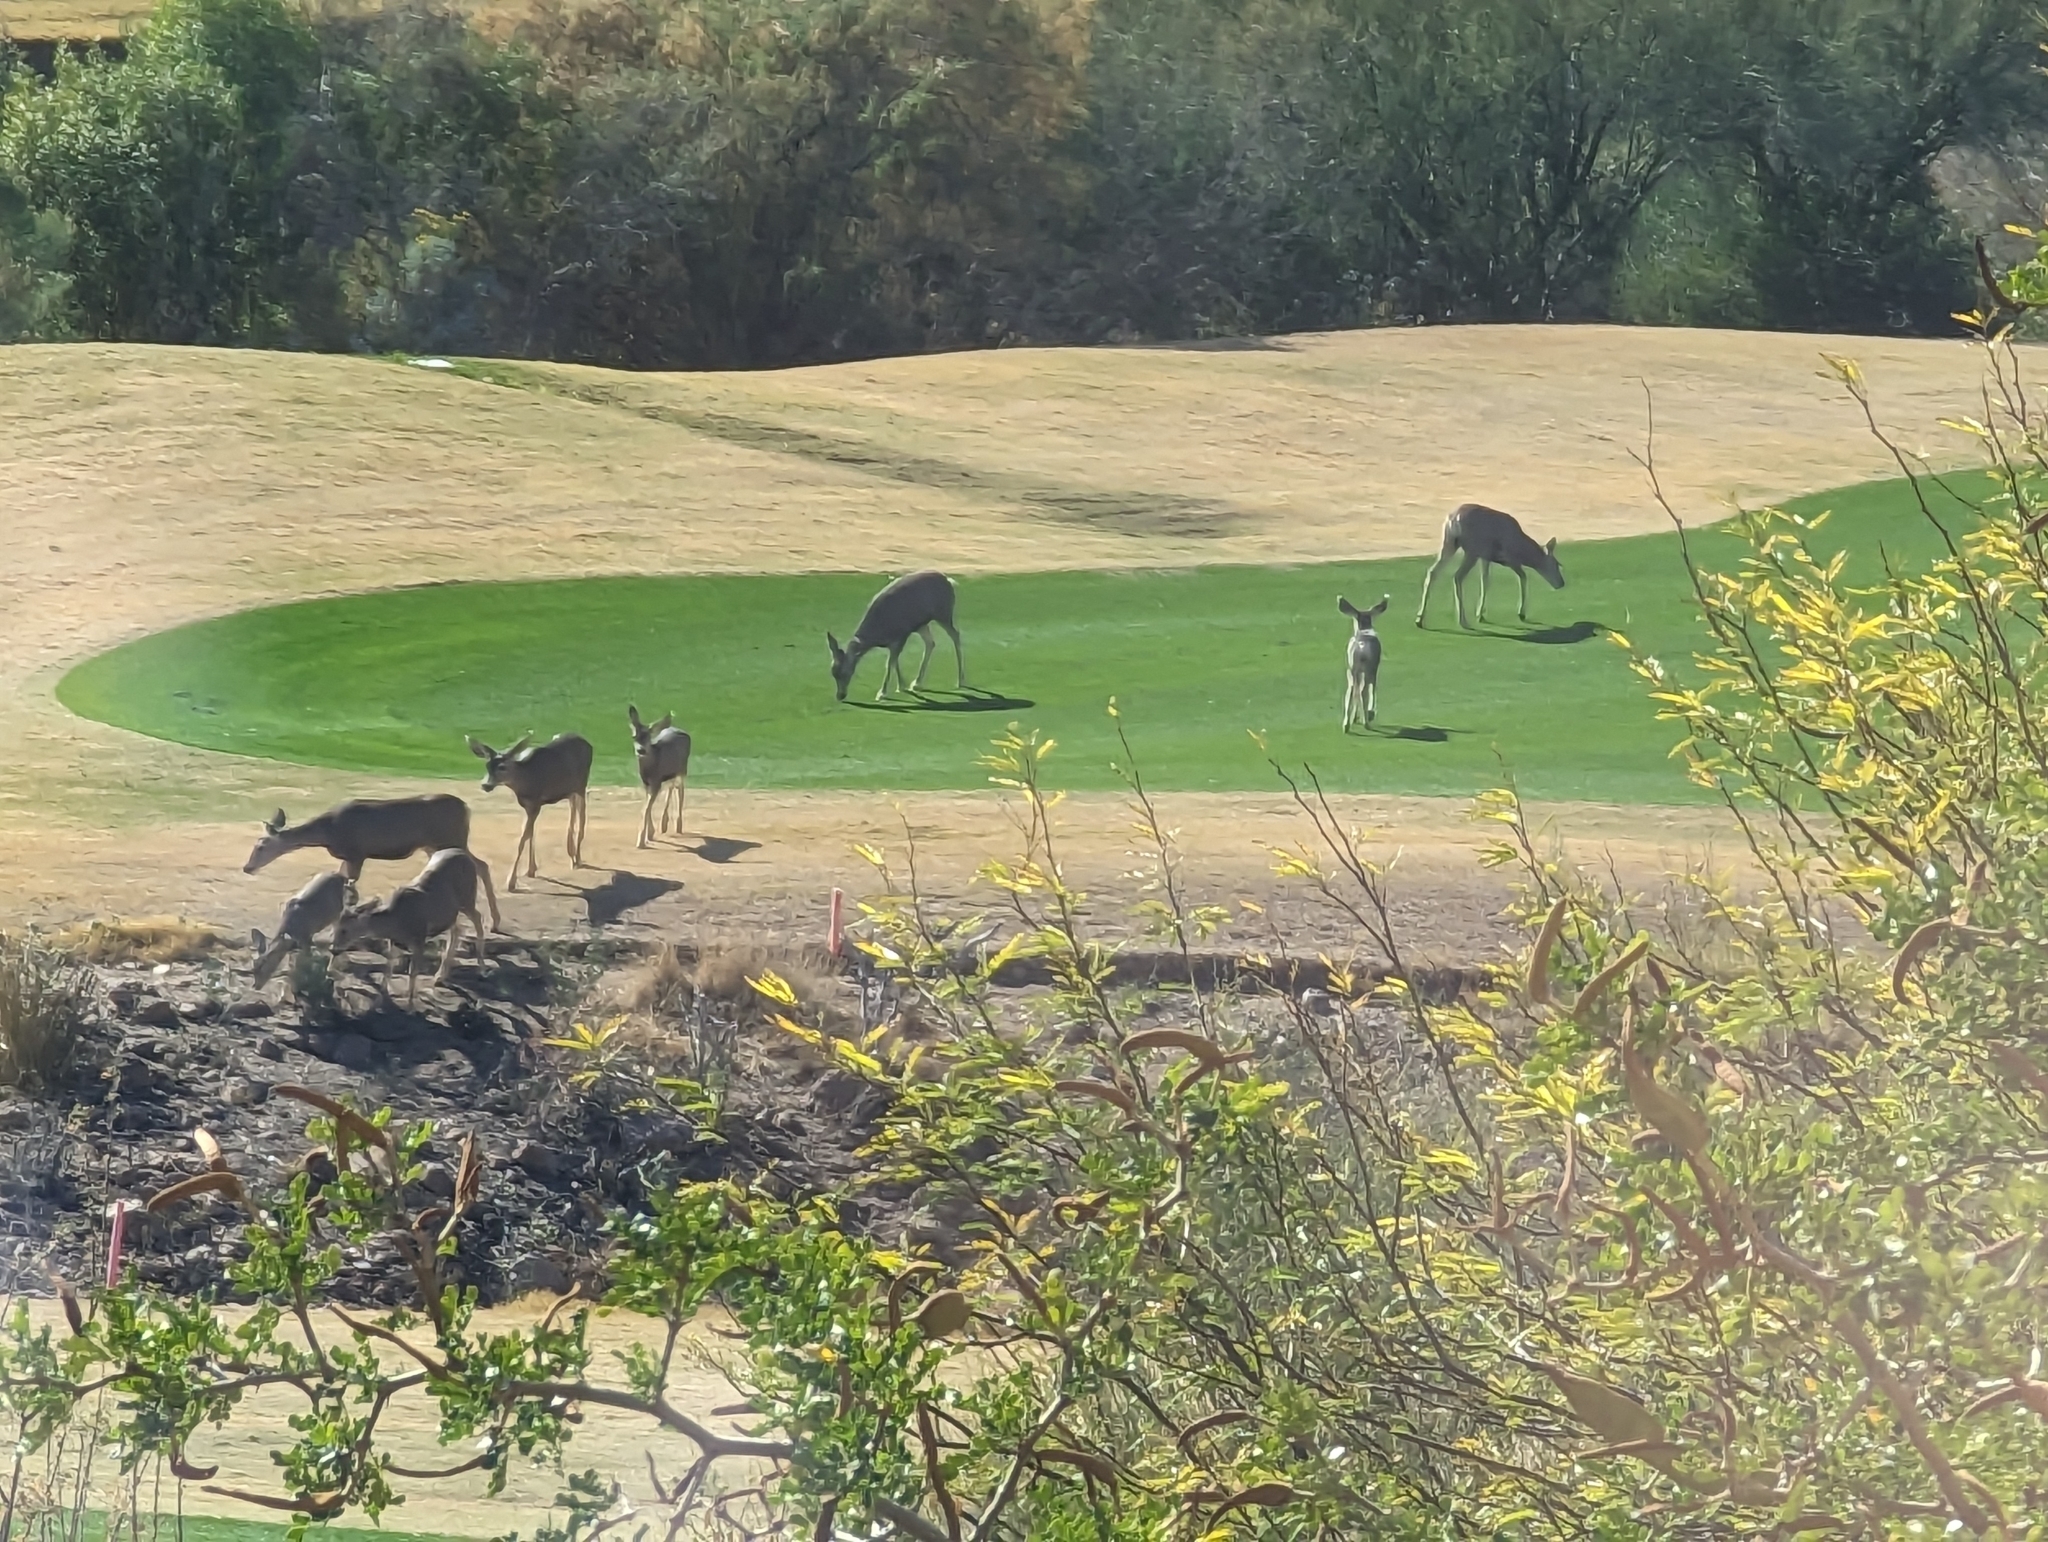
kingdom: Animalia
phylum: Chordata
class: Mammalia
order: Artiodactyla
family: Cervidae
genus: Odocoileus
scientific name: Odocoileus hemionus
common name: Mule deer
